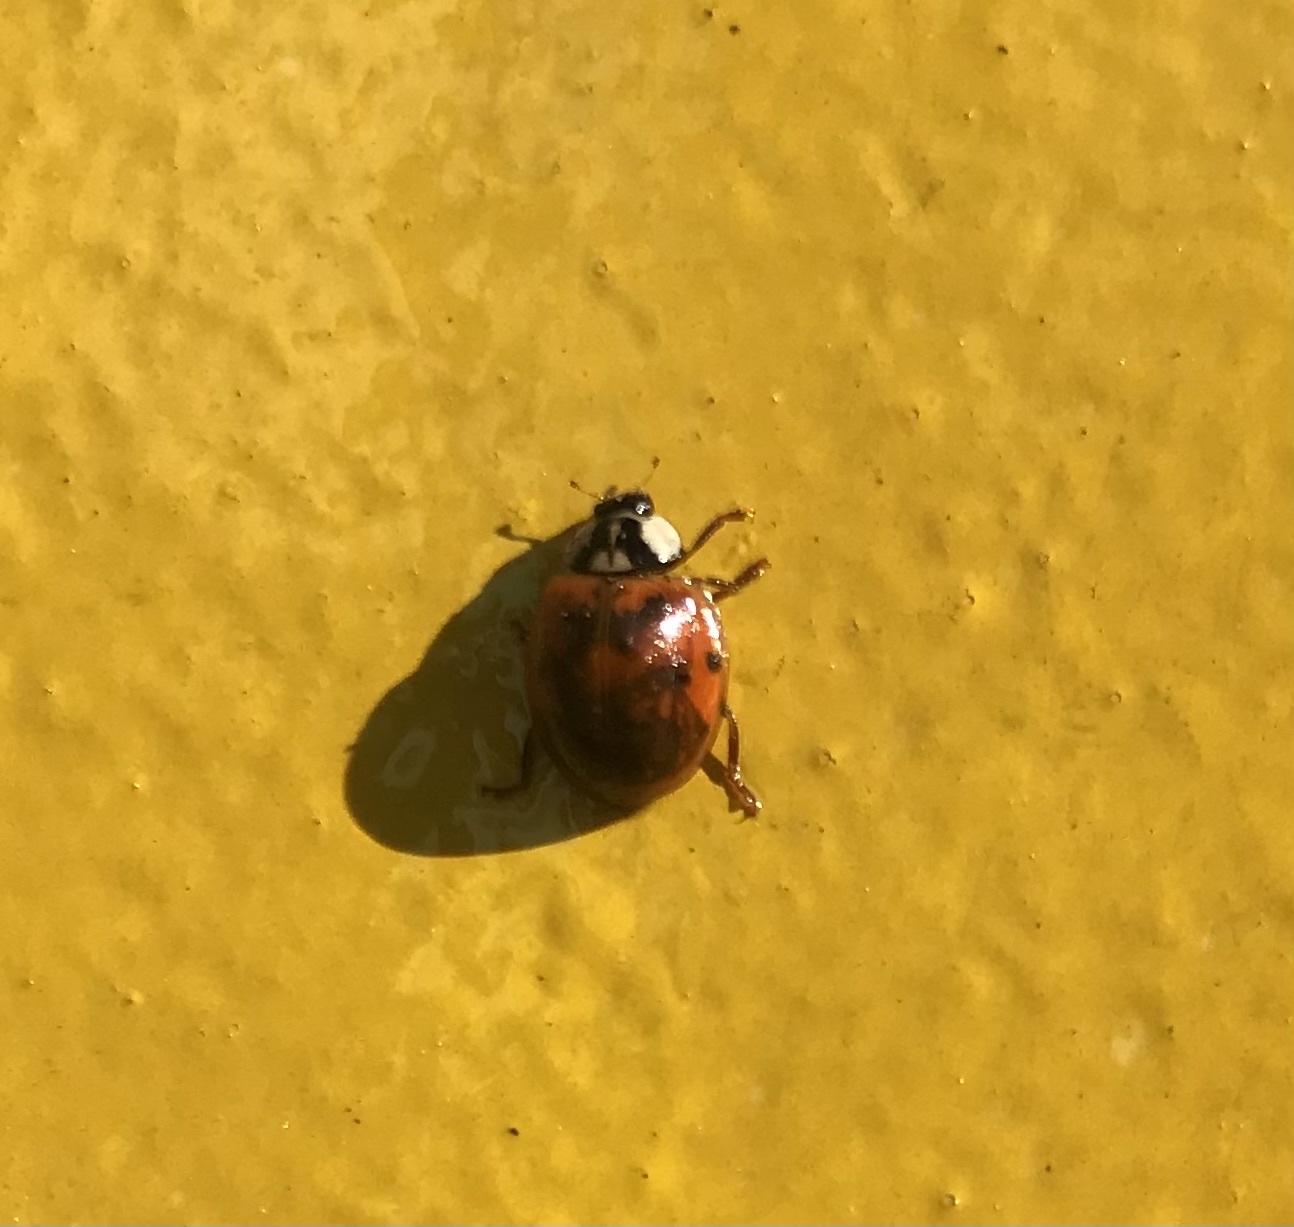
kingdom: Animalia
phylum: Arthropoda
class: Insecta
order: Coleoptera
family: Coccinellidae
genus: Harmonia
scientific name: Harmonia axyridis
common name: Harlequin ladybird
